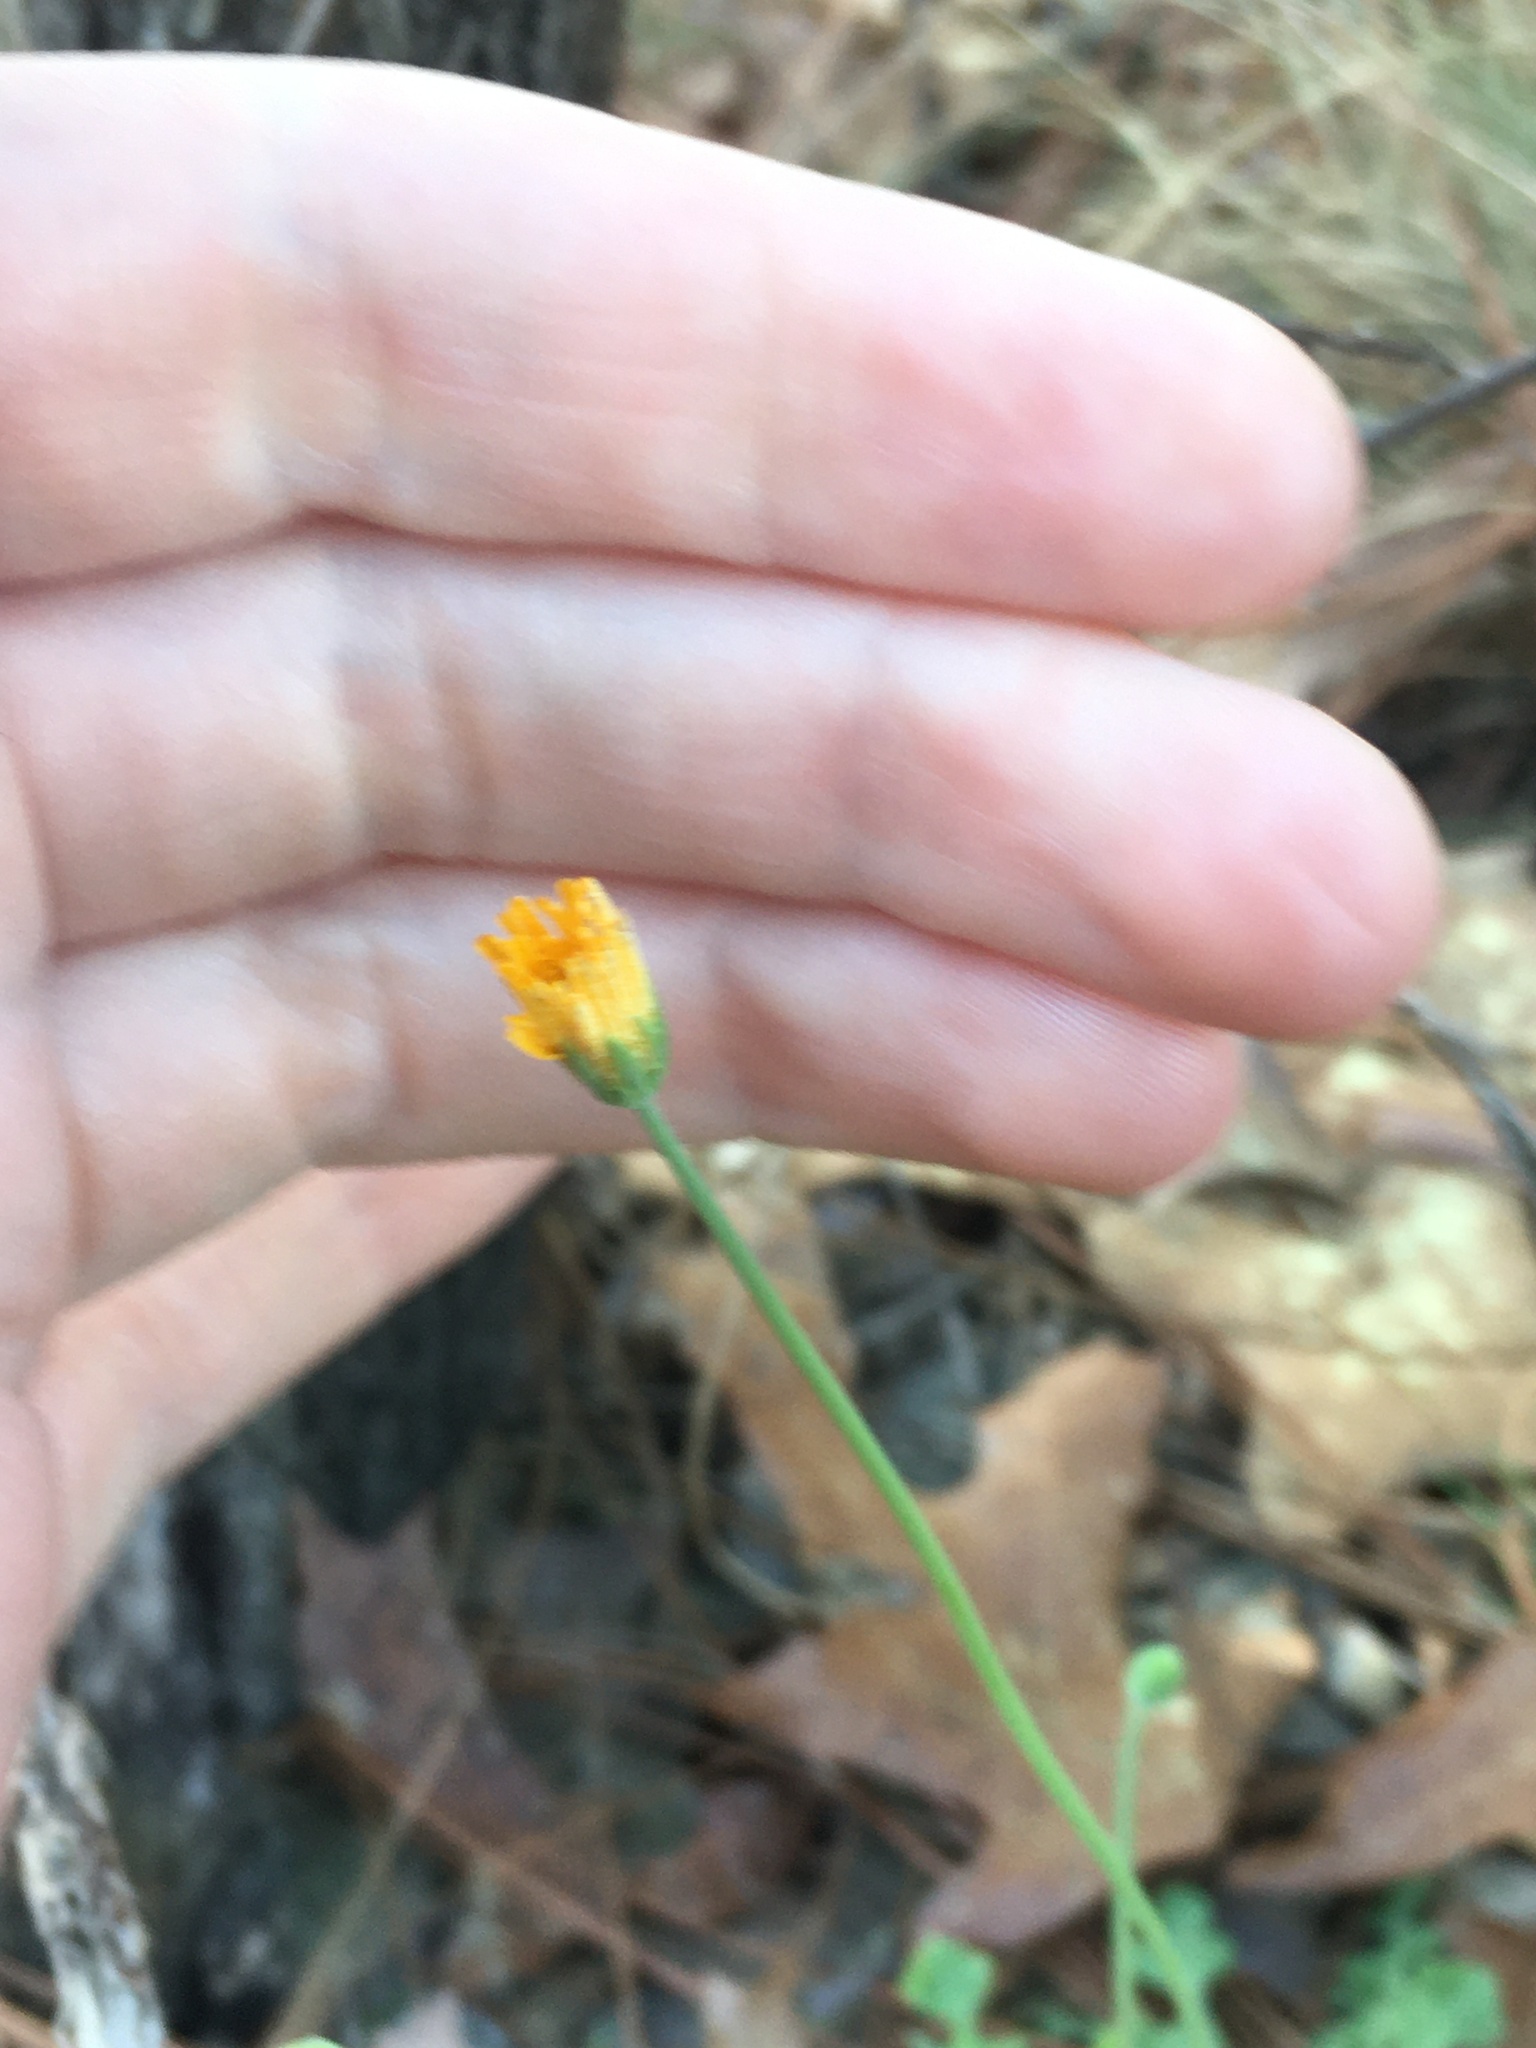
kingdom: Plantae
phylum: Tracheophyta
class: Magnoliopsida
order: Asterales
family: Asteraceae
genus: Krigia
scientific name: Krigia virginica
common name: Virginia dwarf-dandelion
